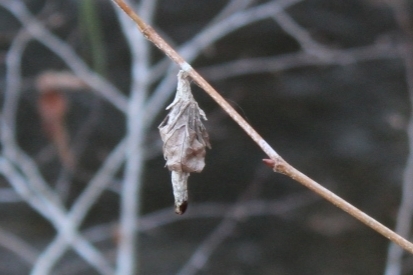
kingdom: Animalia
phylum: Arthropoda
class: Insecta
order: Lepidoptera
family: Psychidae
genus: Thyridopteryx
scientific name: Thyridopteryx ephemeraeformis
